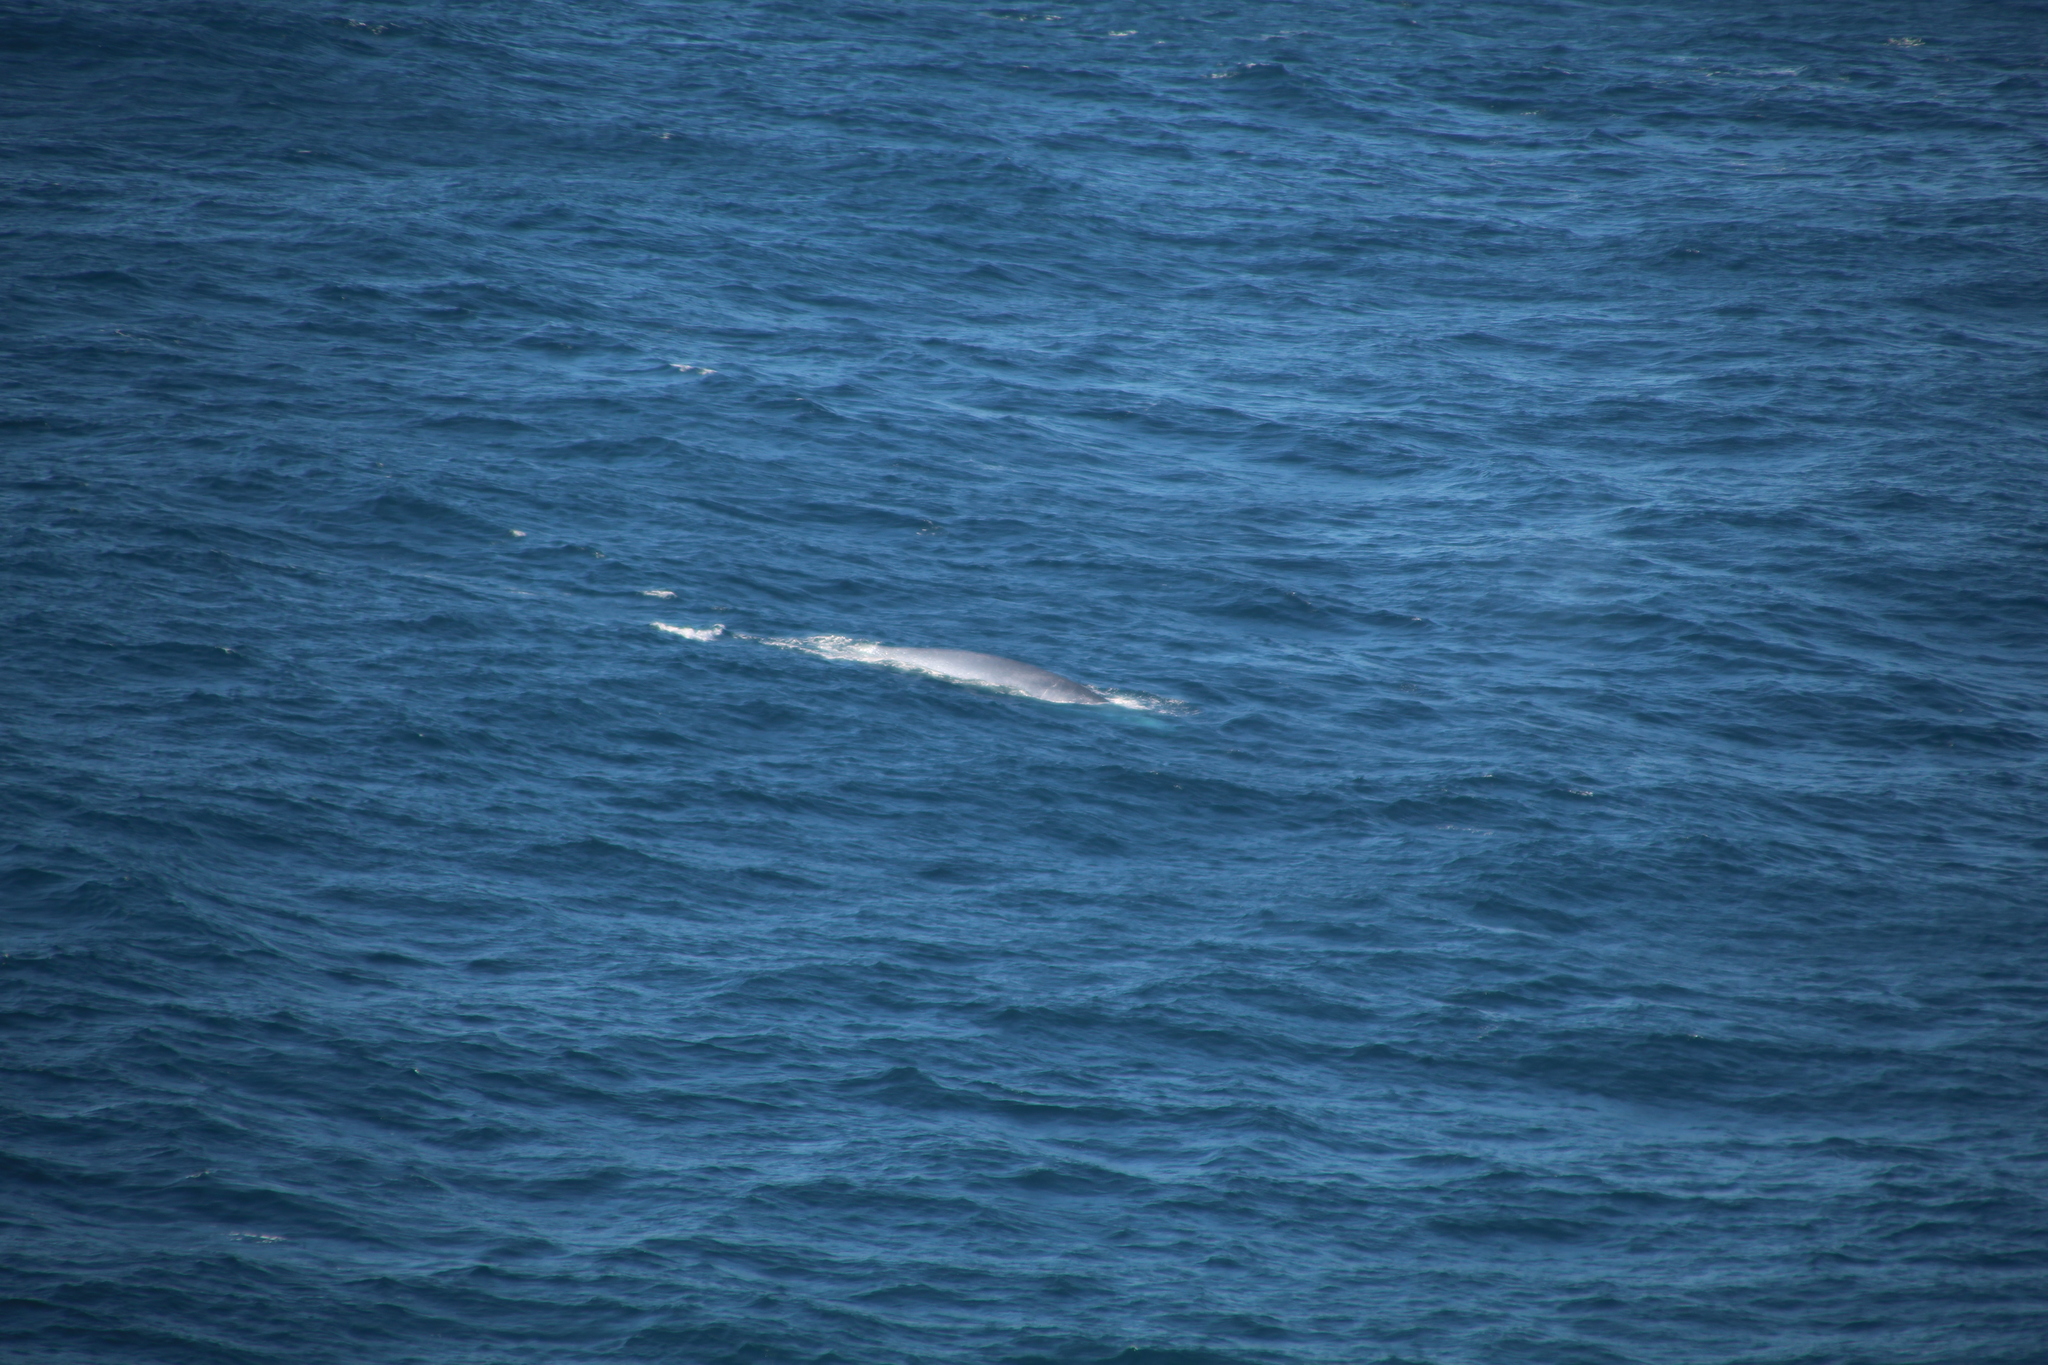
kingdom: Animalia
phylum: Chordata
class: Mammalia
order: Cetacea
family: Balaenopteridae
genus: Balaenoptera
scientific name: Balaenoptera musculus
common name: Blue whale
